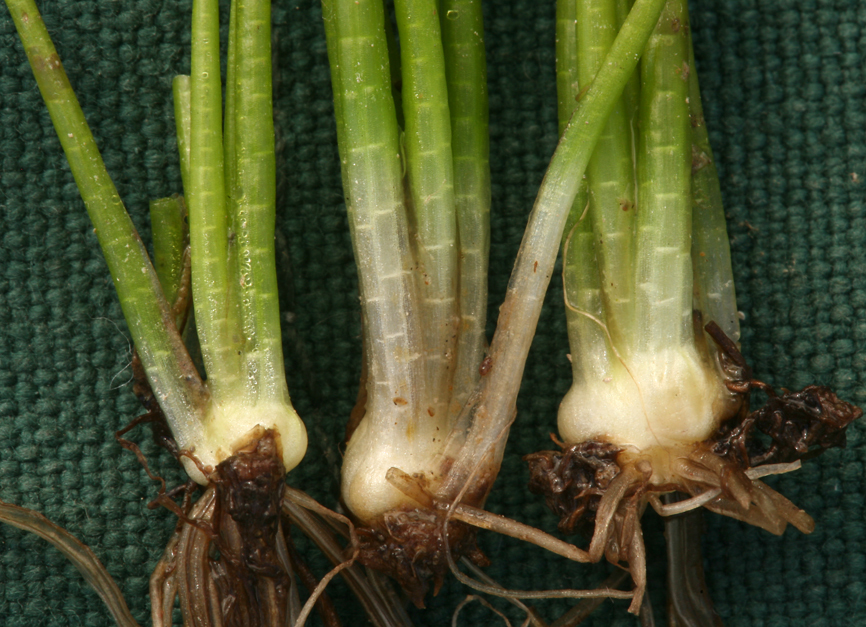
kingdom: Plantae
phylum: Tracheophyta
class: Lycopodiopsida
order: Isoetales
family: Isoetaceae
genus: Isoetes
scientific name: Isoetes bolanderi
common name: Bolander's quillwort
